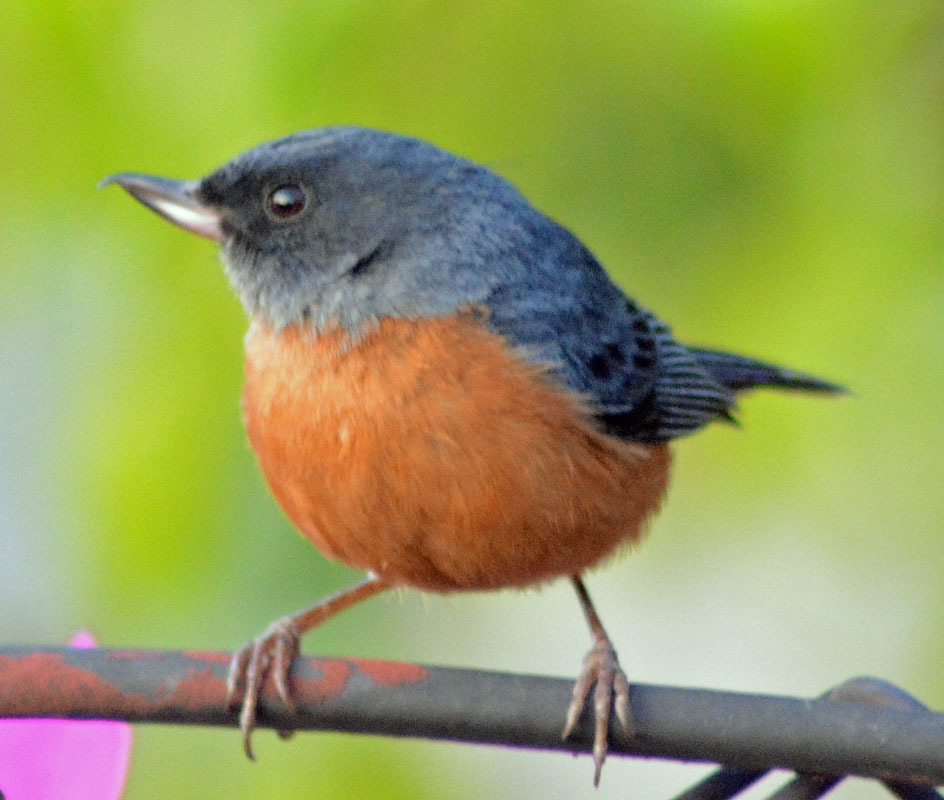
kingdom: Animalia
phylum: Chordata
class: Aves
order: Passeriformes
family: Thraupidae
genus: Diglossa
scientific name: Diglossa baritula
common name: Cinnamon-bellied flowerpiercer
